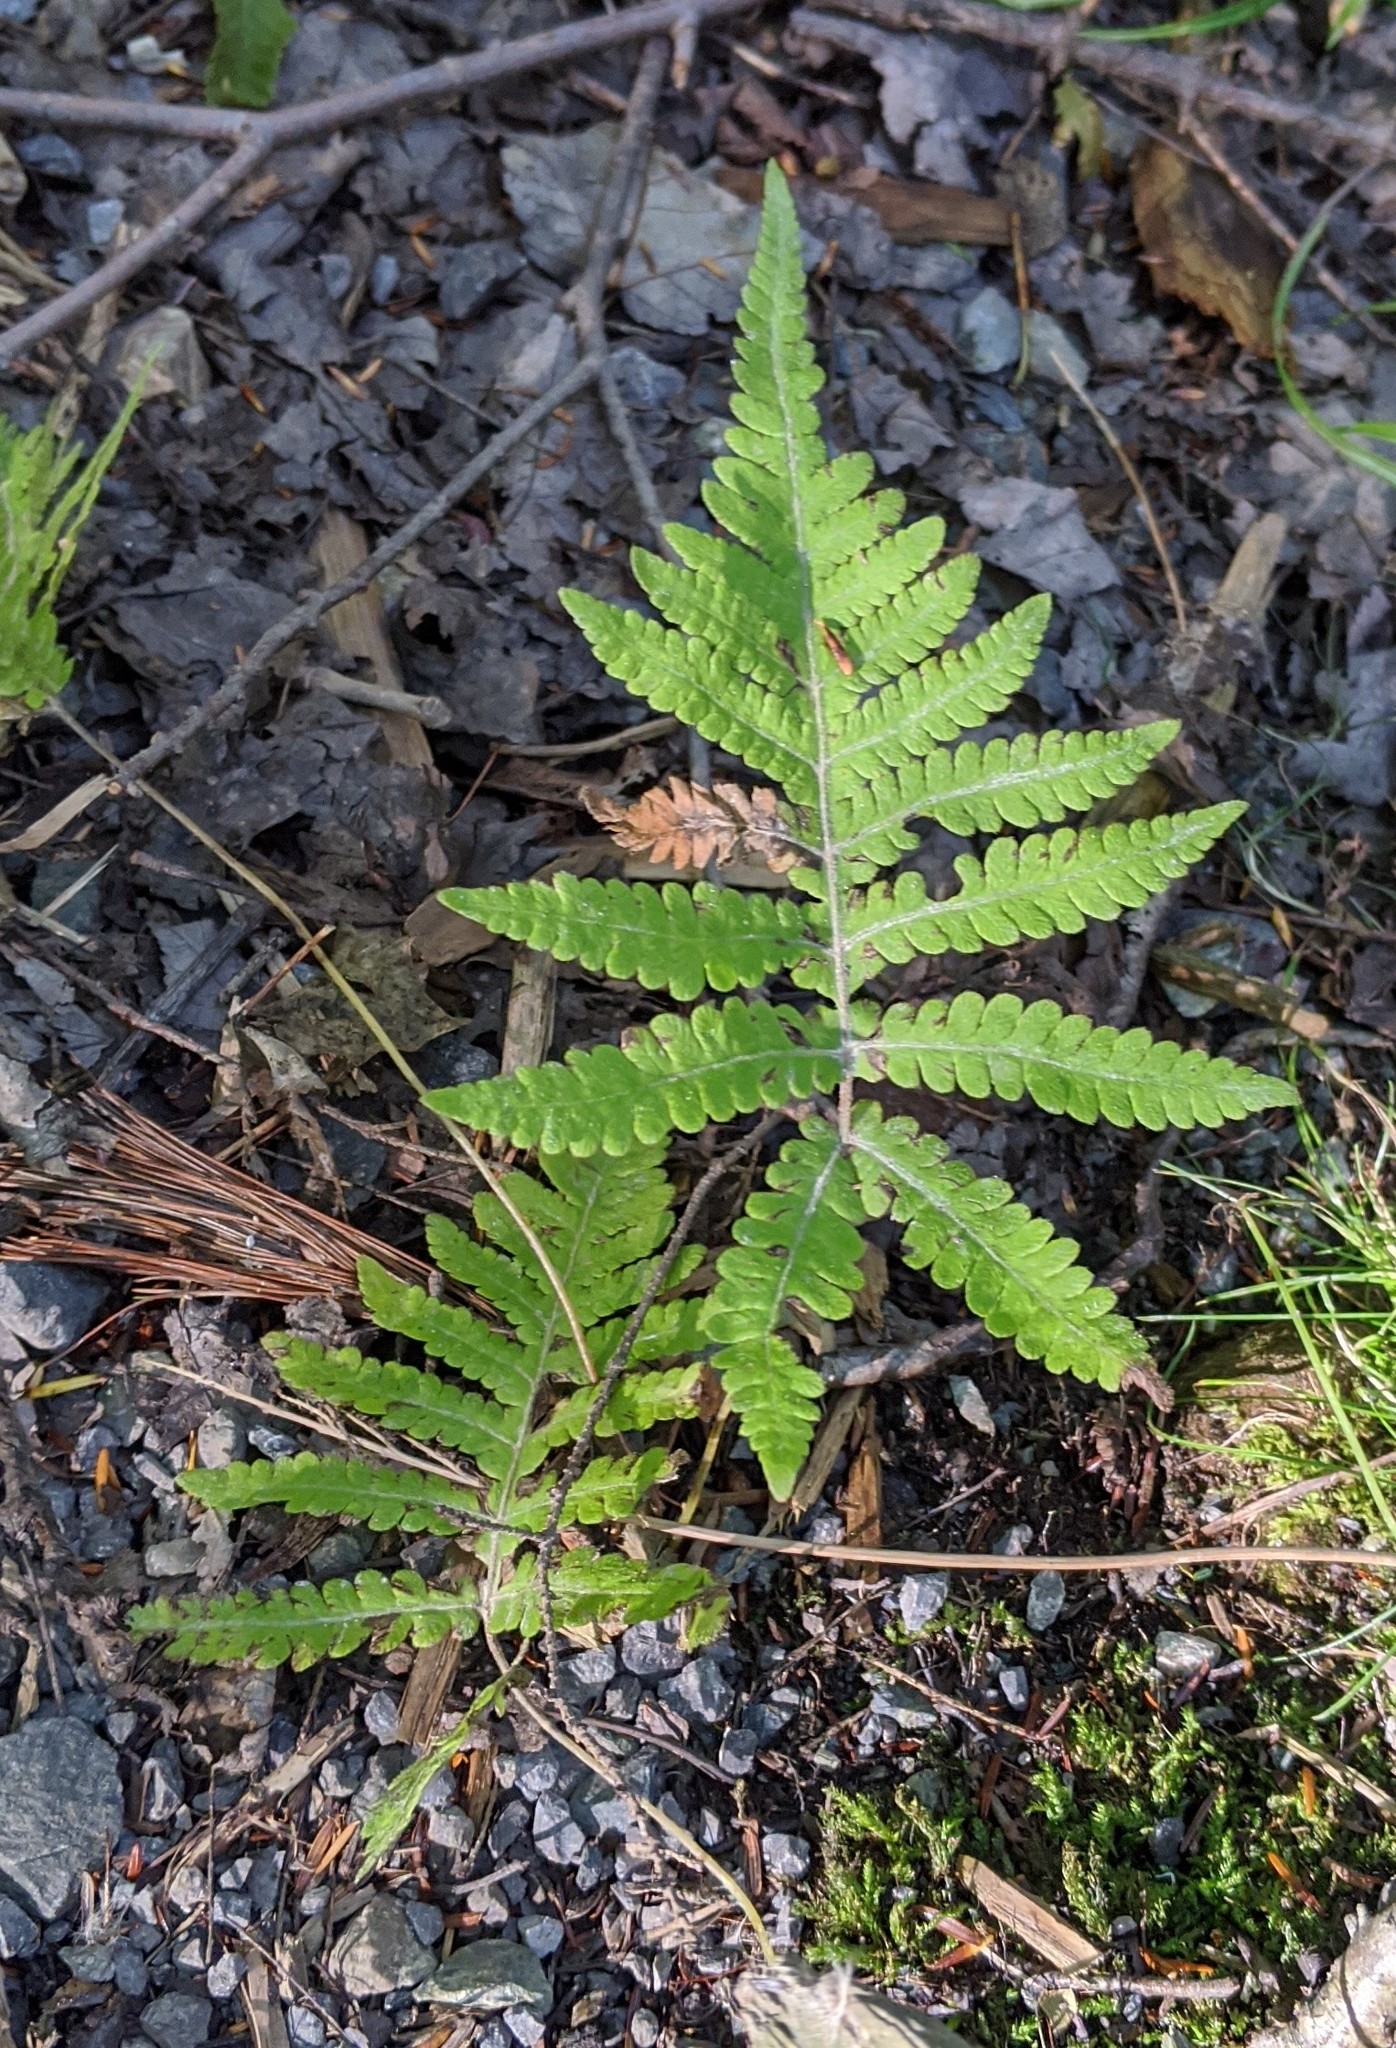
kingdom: Plantae
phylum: Tracheophyta
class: Polypodiopsida
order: Polypodiales
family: Thelypteridaceae
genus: Phegopteris
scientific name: Phegopteris connectilis
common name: Beech fern
